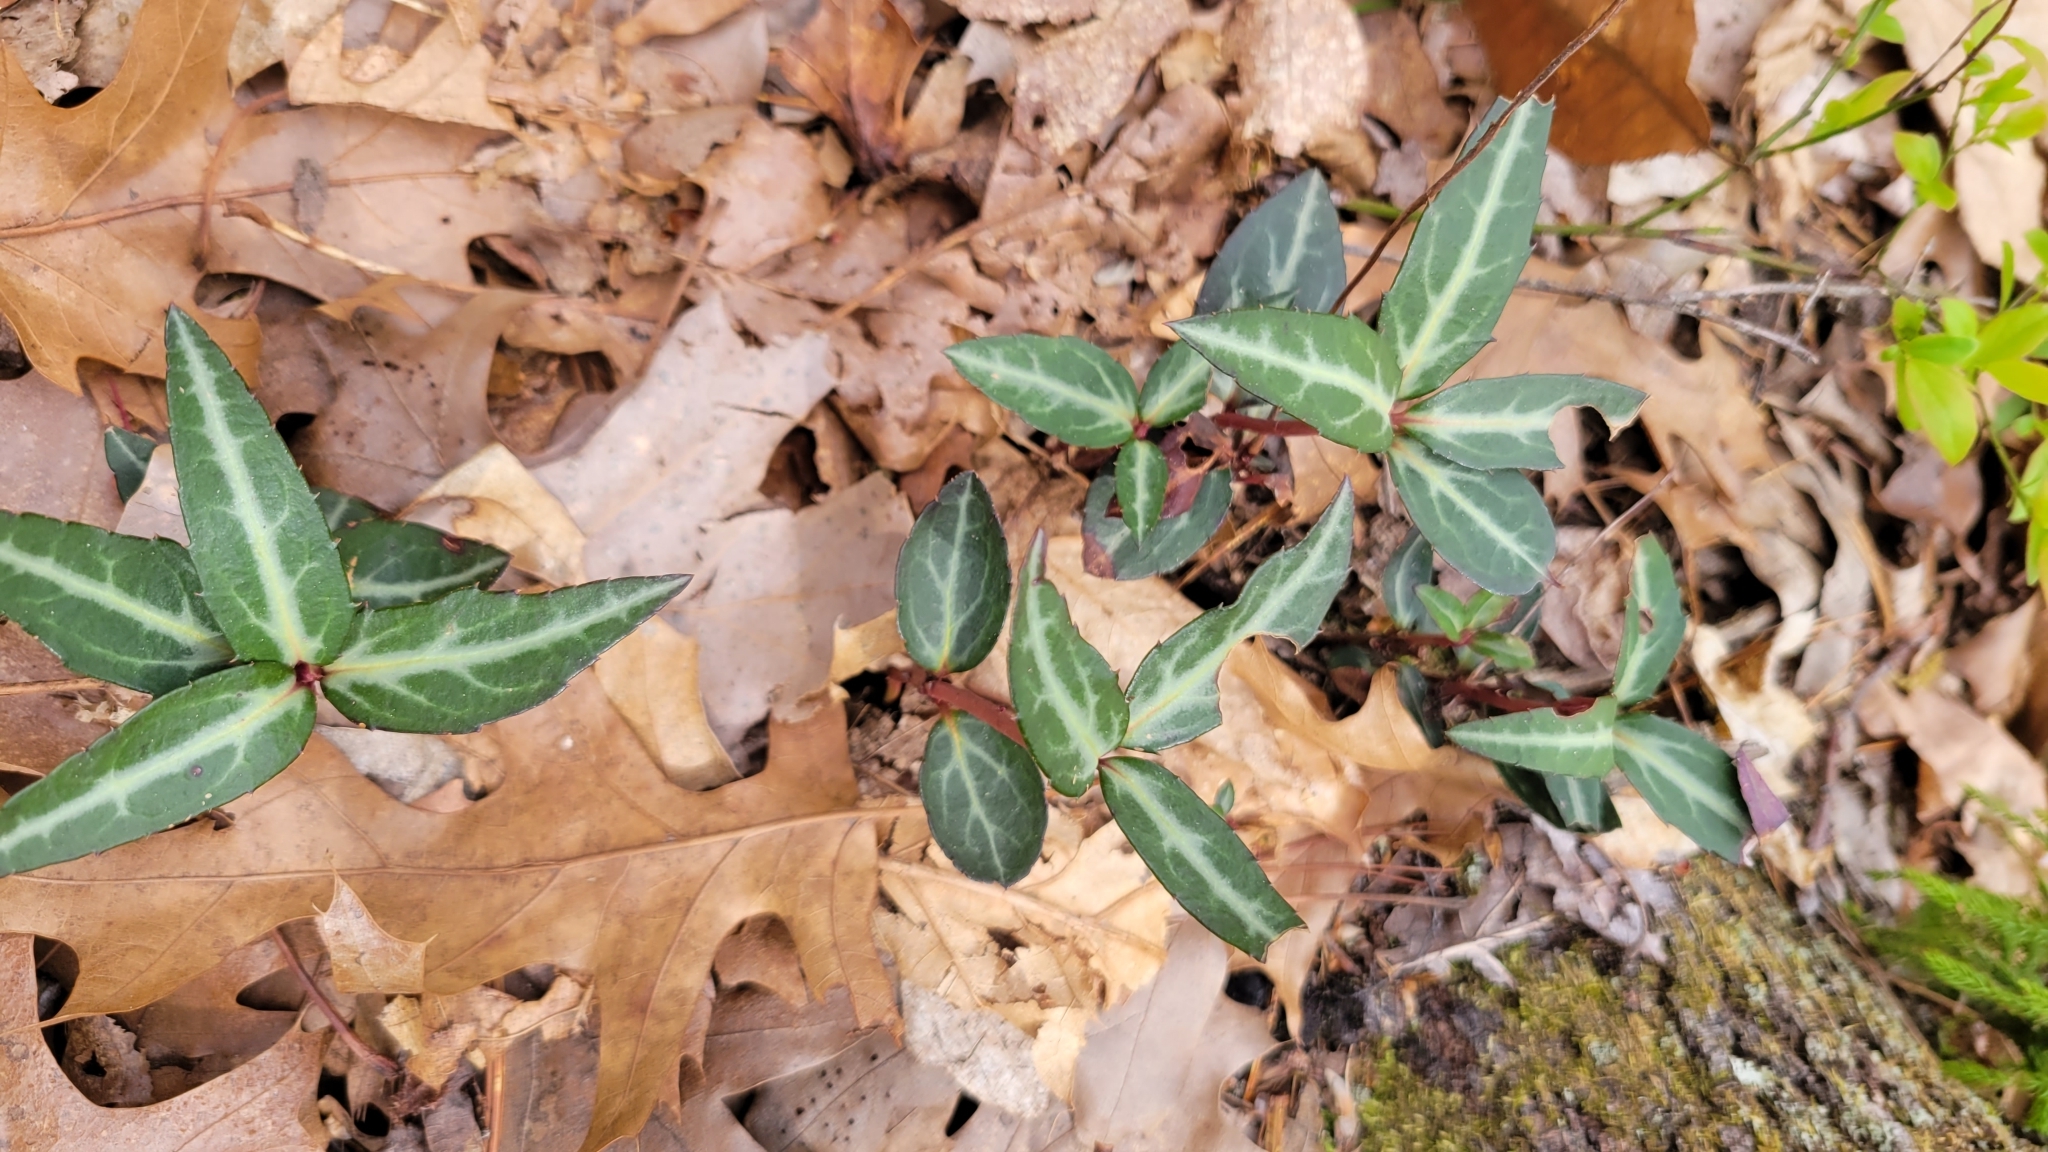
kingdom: Plantae
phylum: Tracheophyta
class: Magnoliopsida
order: Ericales
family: Ericaceae
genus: Chimaphila
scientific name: Chimaphila maculata
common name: Spotted pipsissewa
